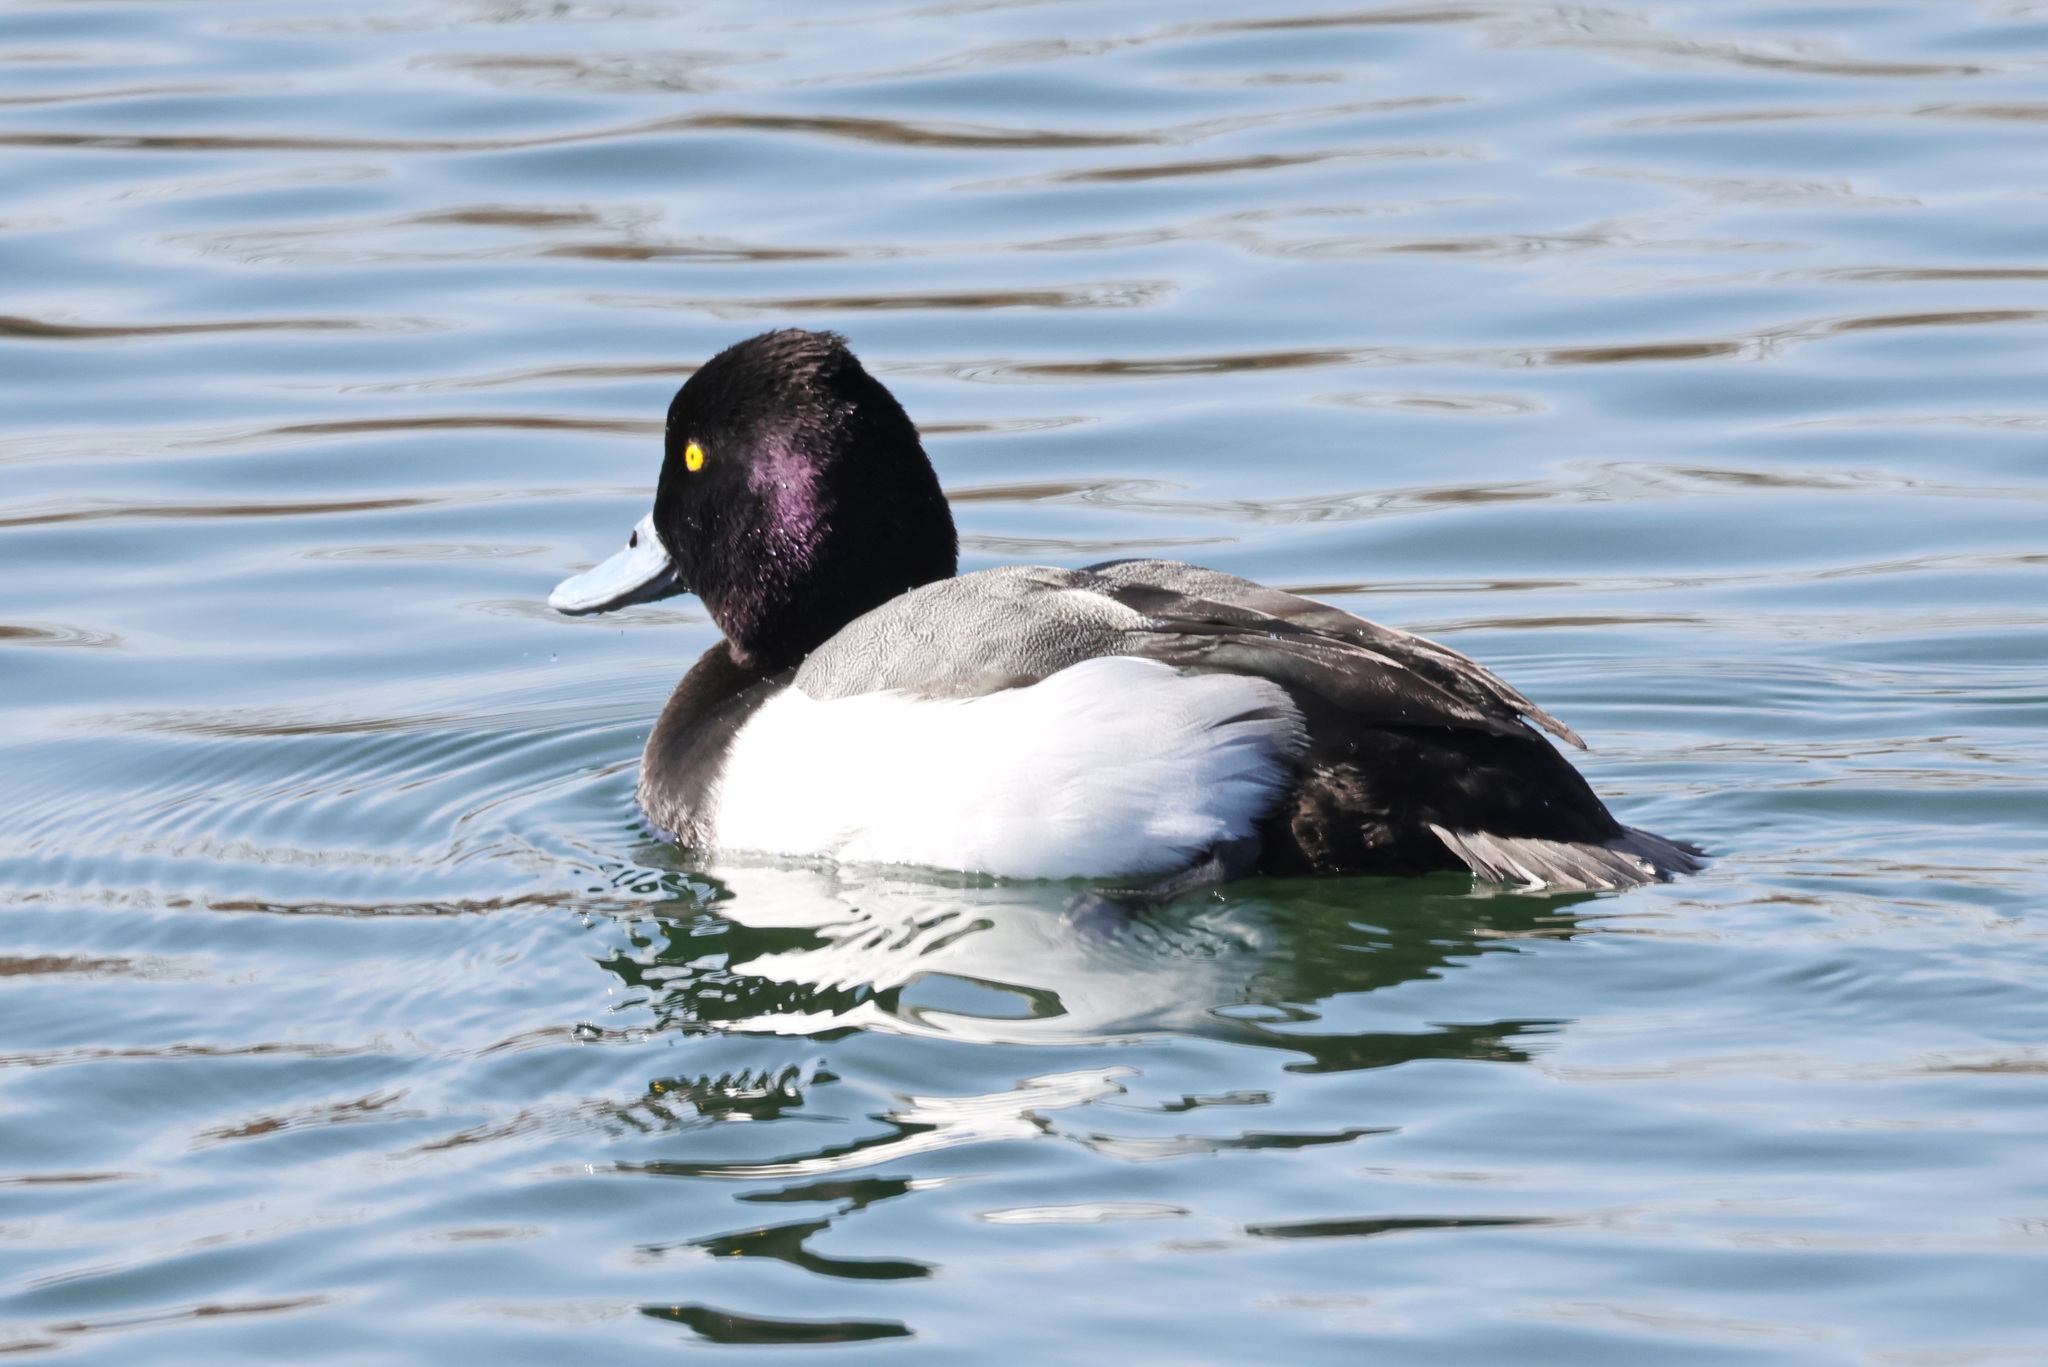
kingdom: Animalia
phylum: Chordata
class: Aves
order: Anseriformes
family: Anatidae
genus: Aythya
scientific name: Aythya affinis
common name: Lesser scaup
